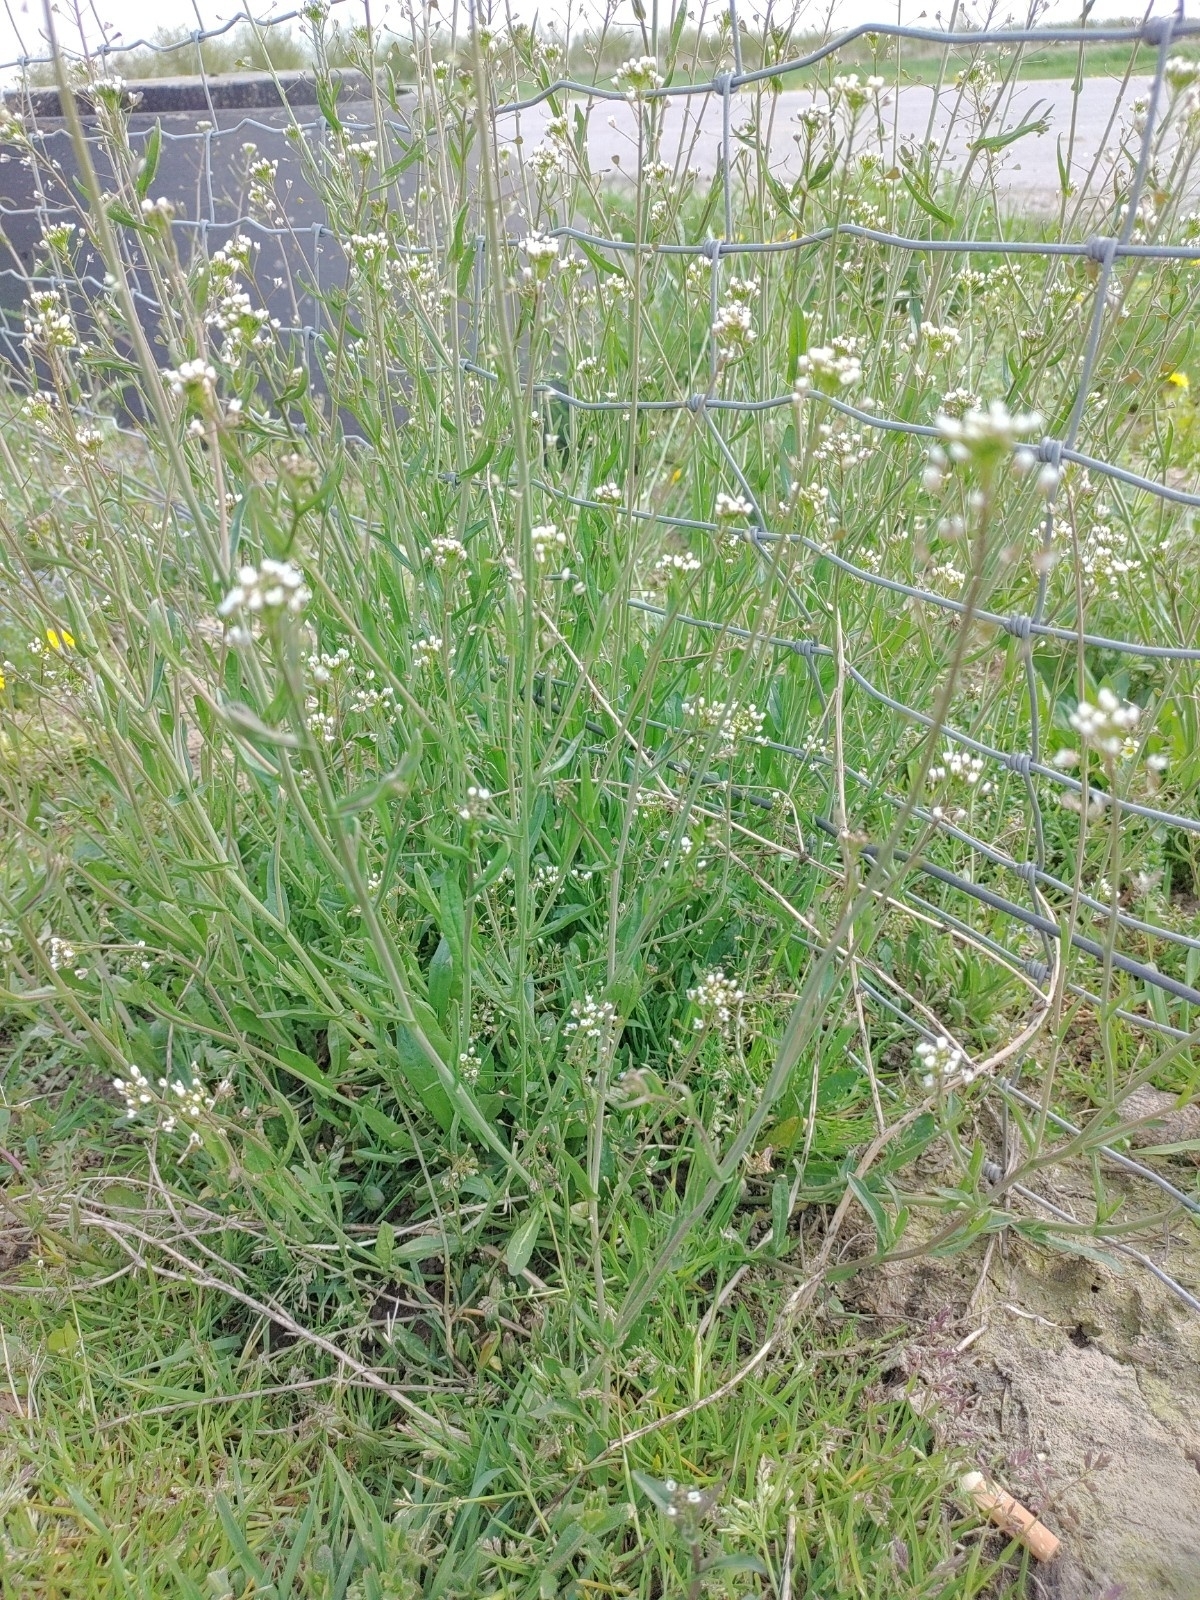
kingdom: Plantae
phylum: Tracheophyta
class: Magnoliopsida
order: Brassicales
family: Brassicaceae
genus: Capsella
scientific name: Capsella bursa-pastoris
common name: Shepherd's purse
